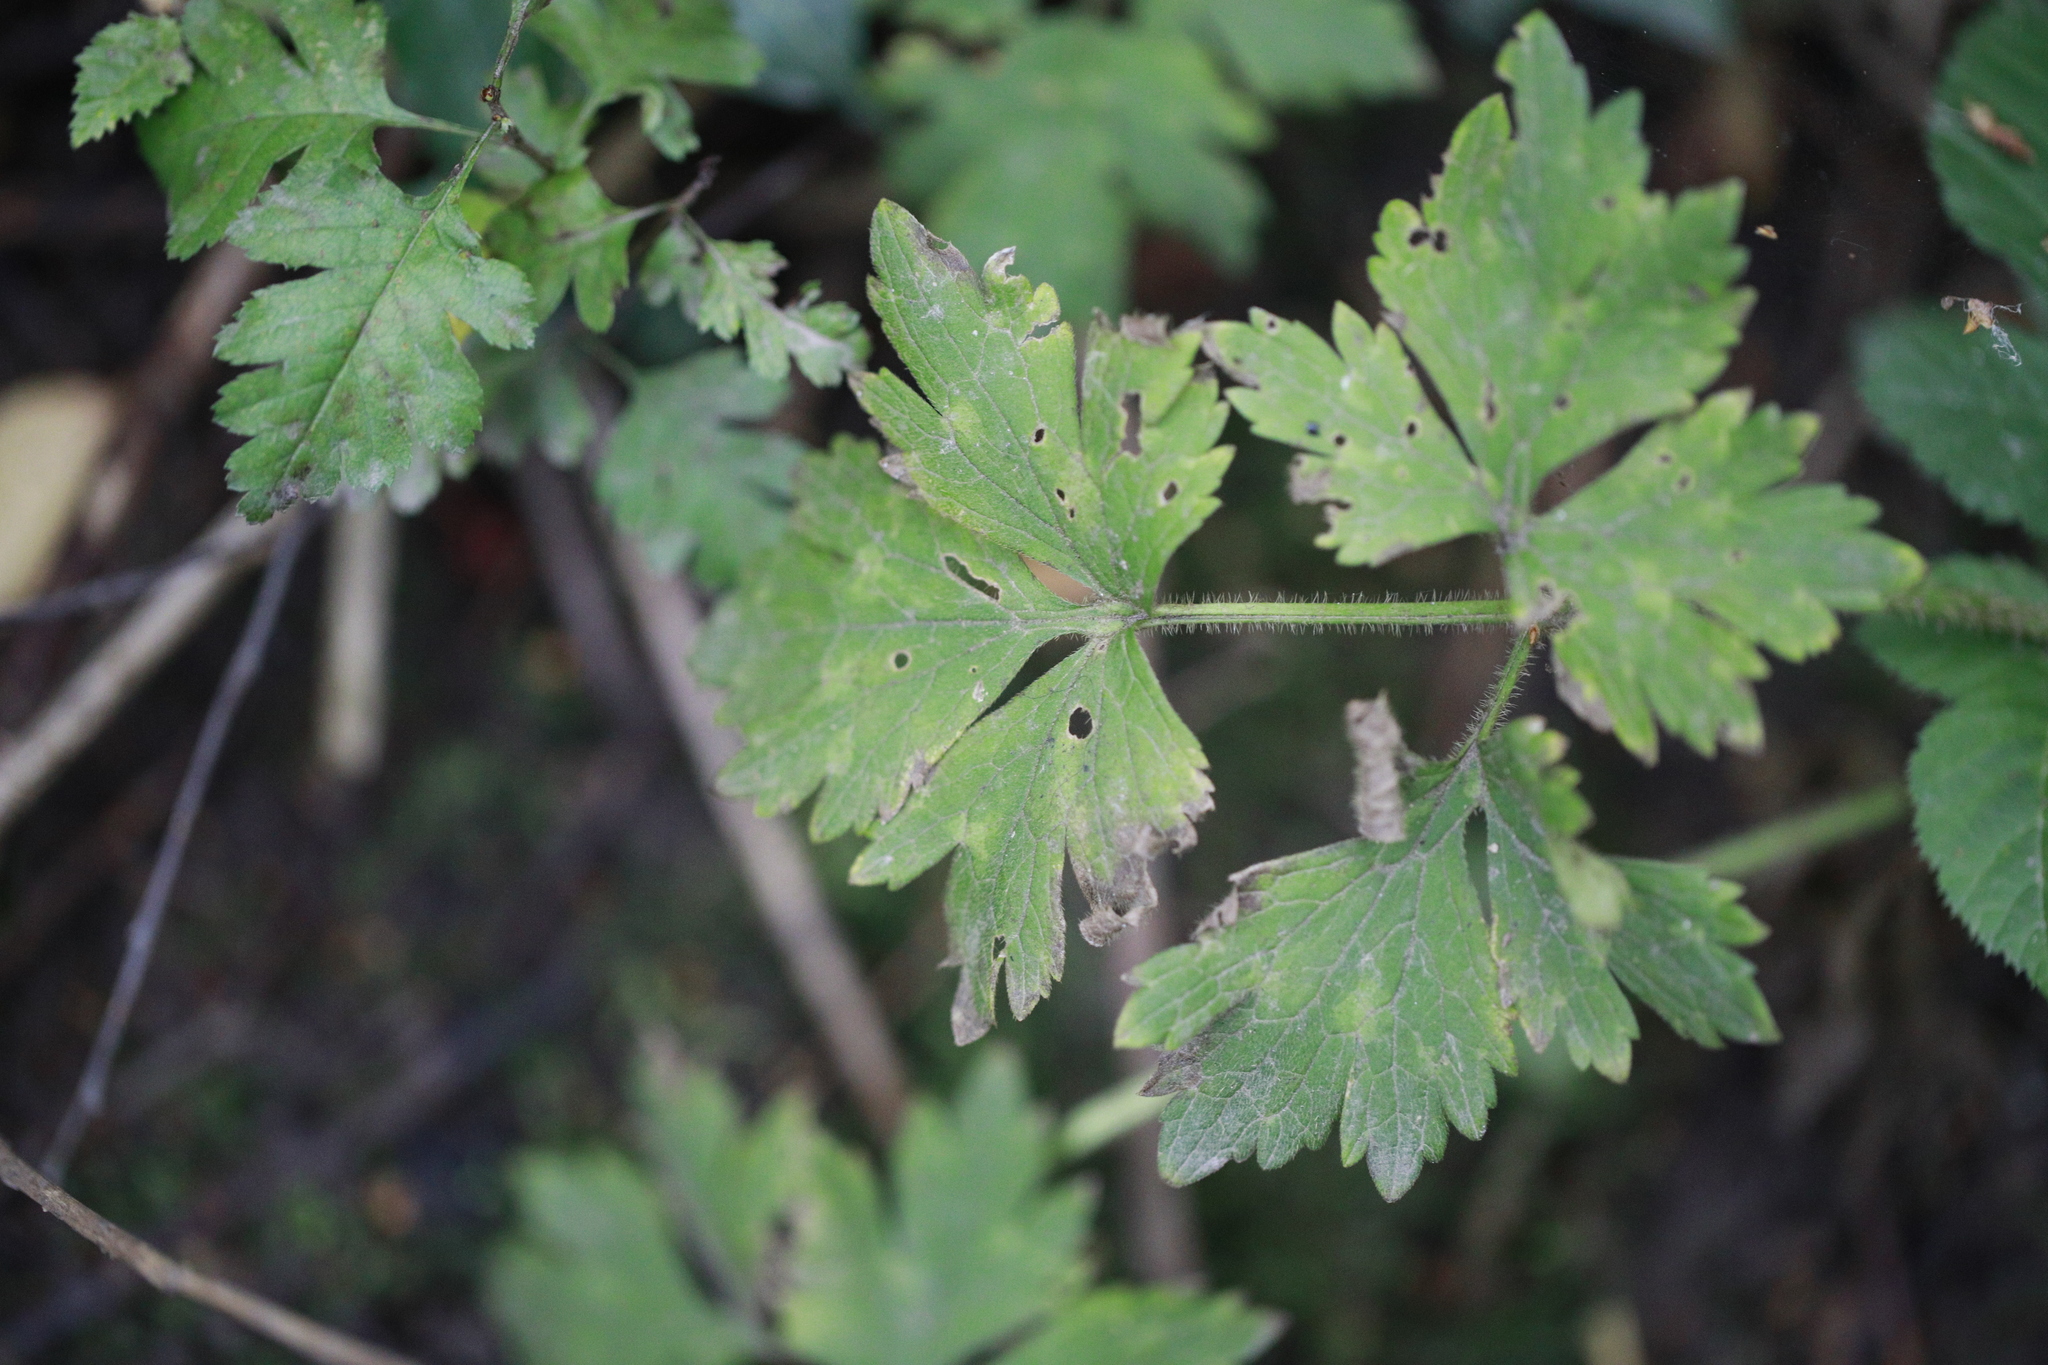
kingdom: Plantae
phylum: Tracheophyta
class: Magnoliopsida
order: Ranunculales
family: Ranunculaceae
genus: Ranunculus
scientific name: Ranunculus repens
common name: Creeping buttercup
